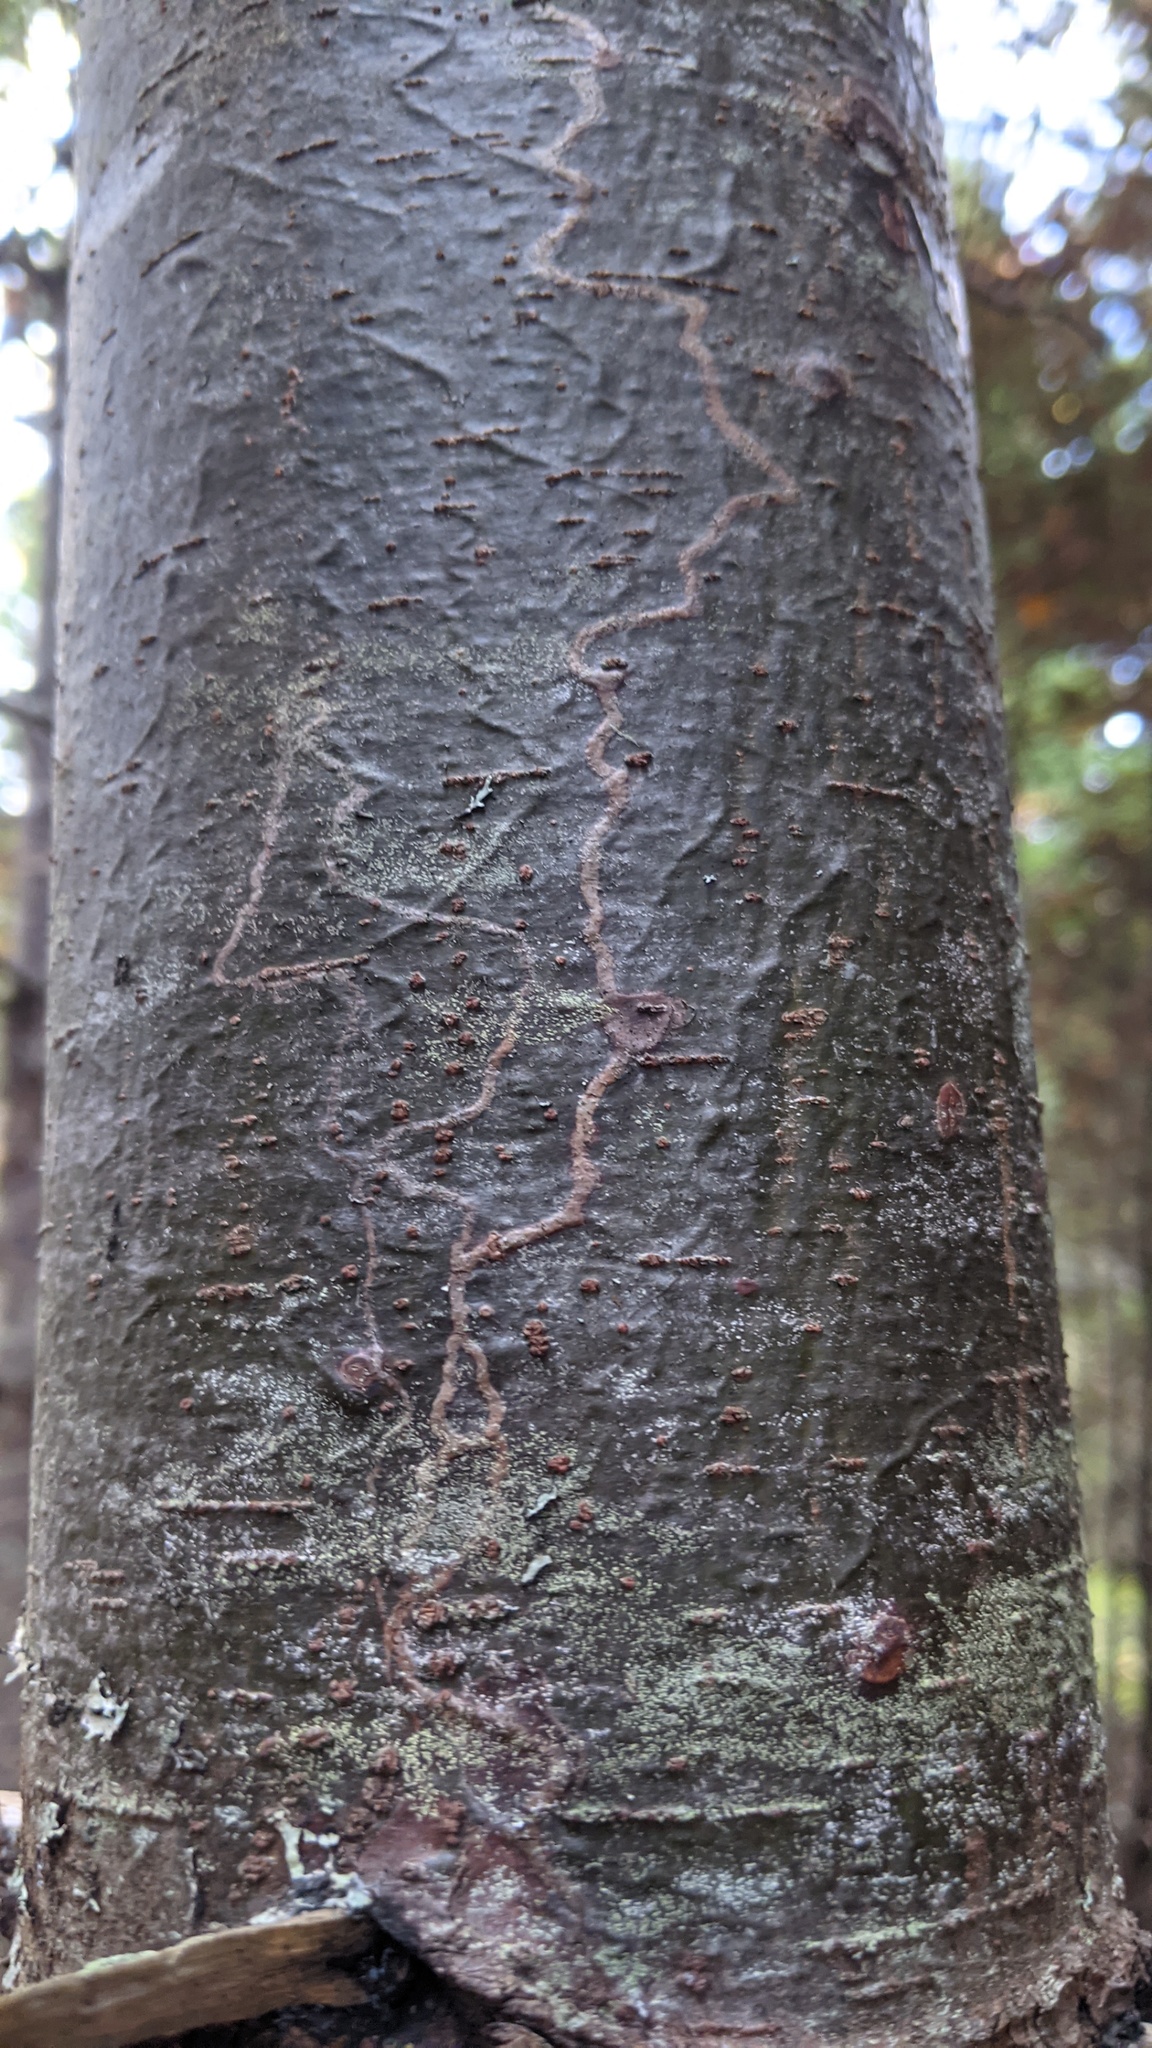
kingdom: Animalia
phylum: Arthropoda
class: Insecta
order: Lepidoptera
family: Gracillariidae
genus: Marmara
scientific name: Marmara fasciella
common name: White pine barkminer moth
